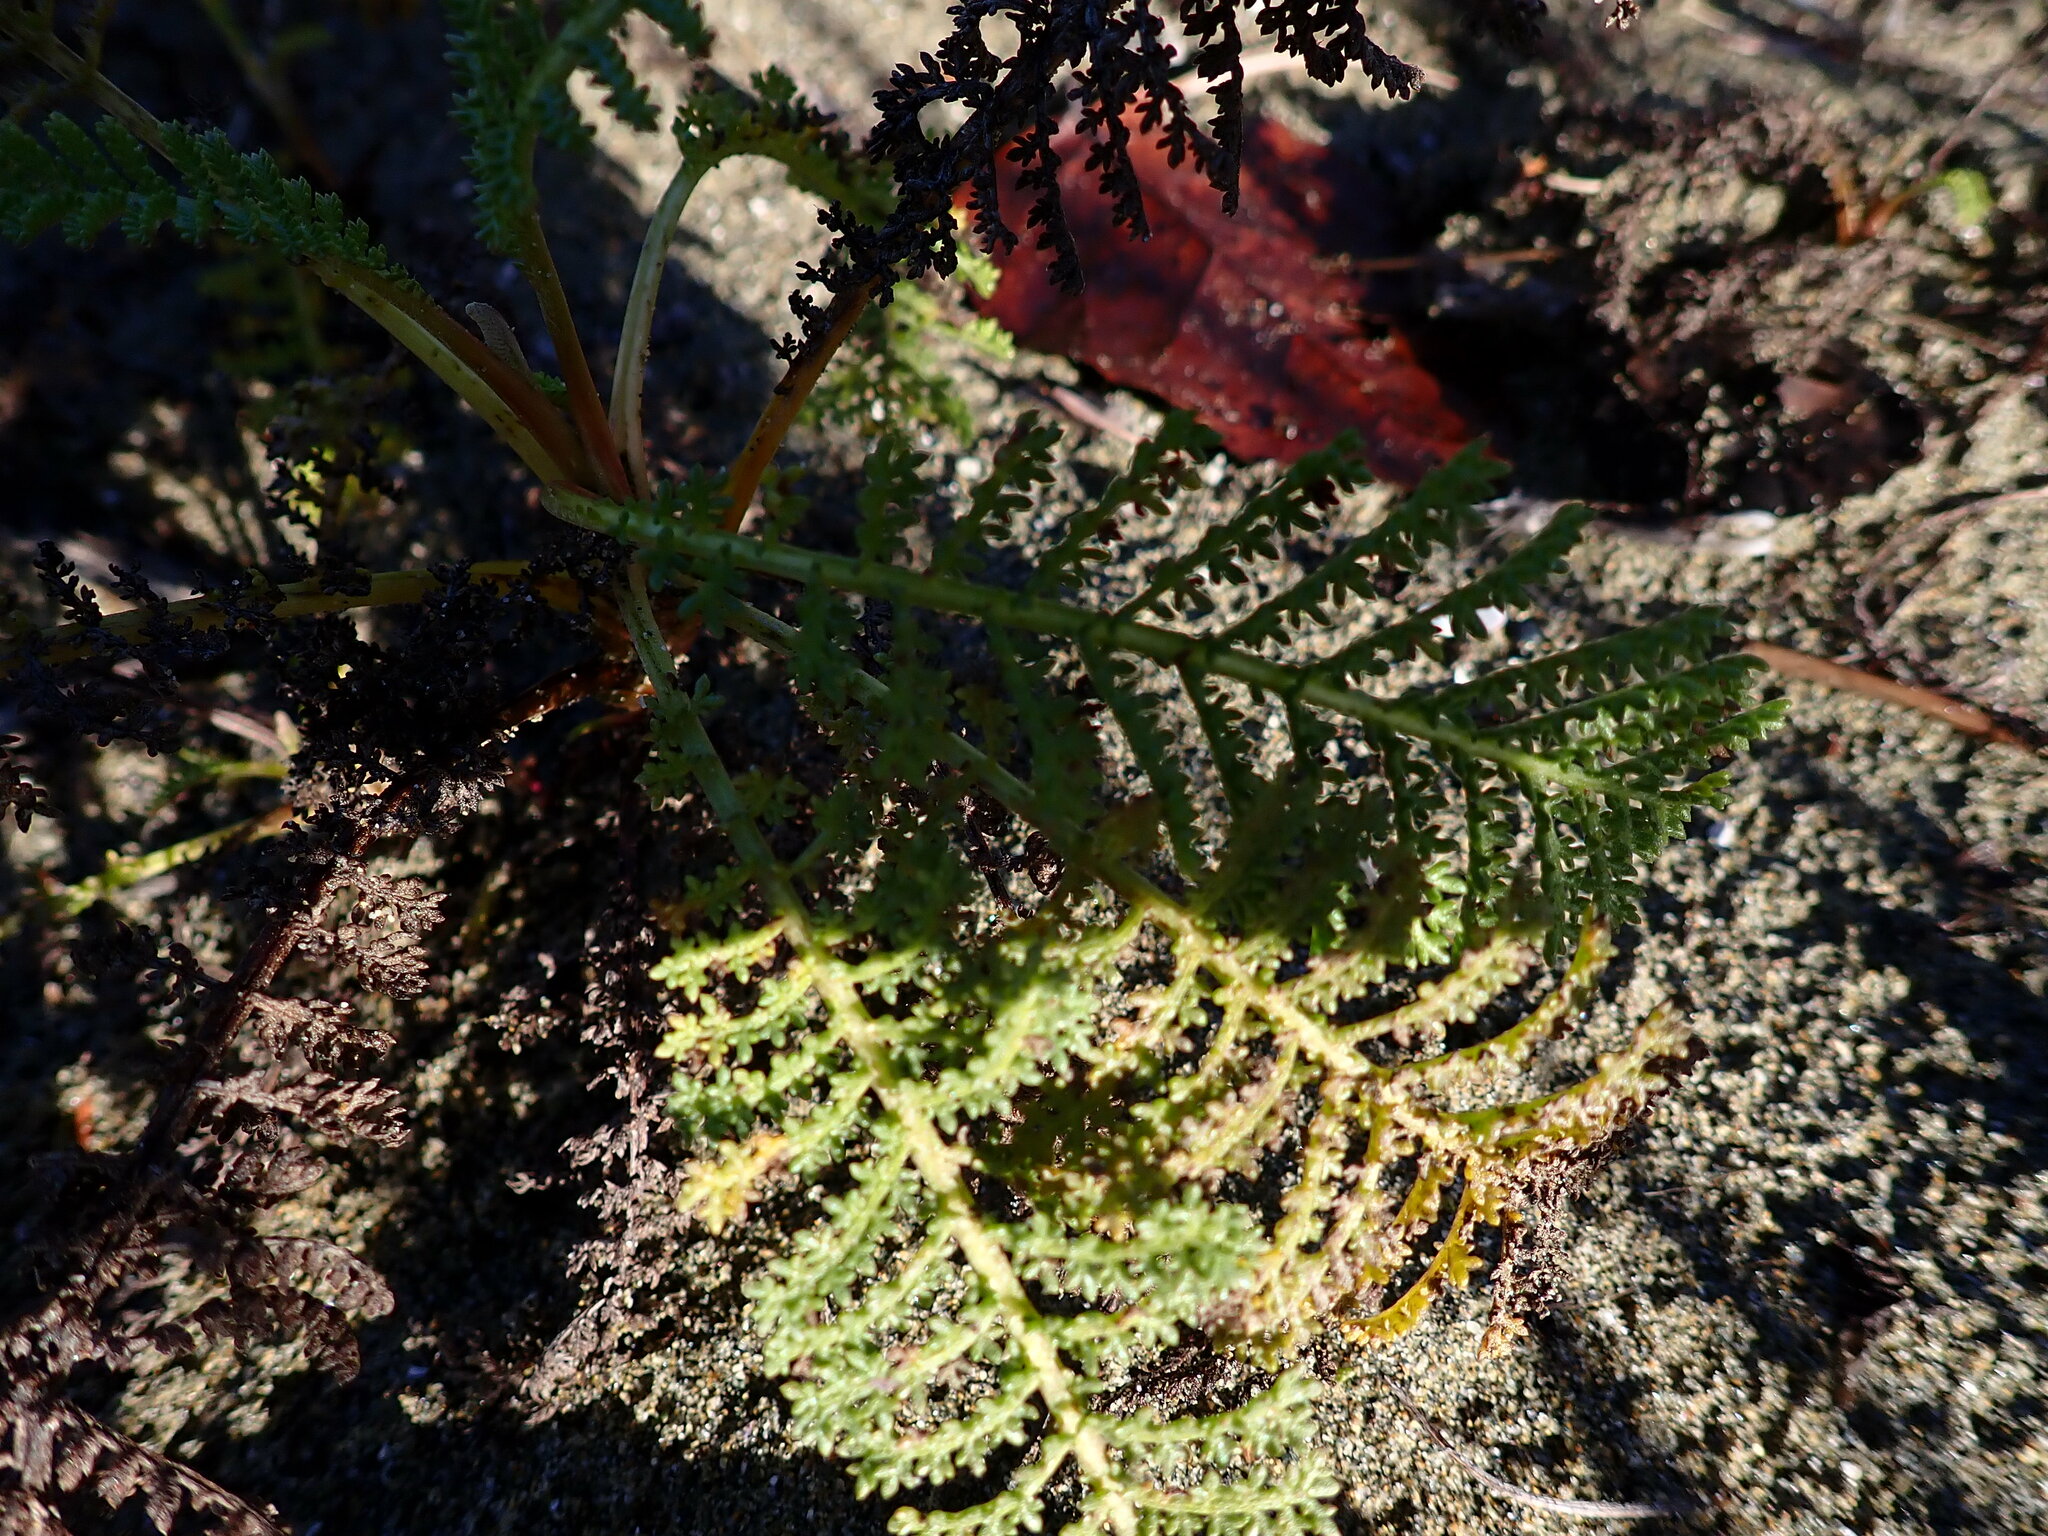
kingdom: Plantae
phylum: Tracheophyta
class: Magnoliopsida
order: Asterales
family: Asteraceae
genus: Tanacetum
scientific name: Tanacetum bipinnatum
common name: Dwarf tansy
